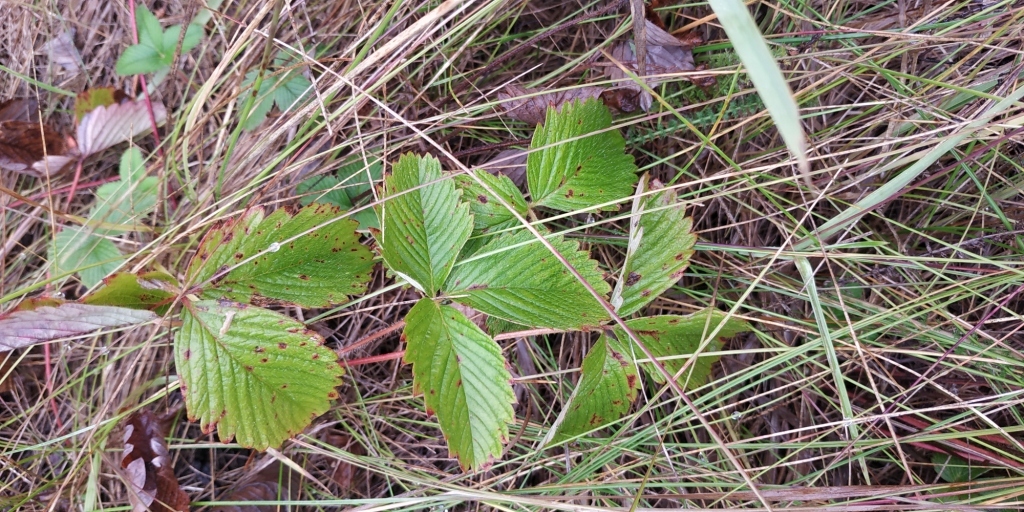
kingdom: Plantae
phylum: Tracheophyta
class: Magnoliopsida
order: Rosales
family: Rosaceae
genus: Fragaria
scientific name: Fragaria viridis
